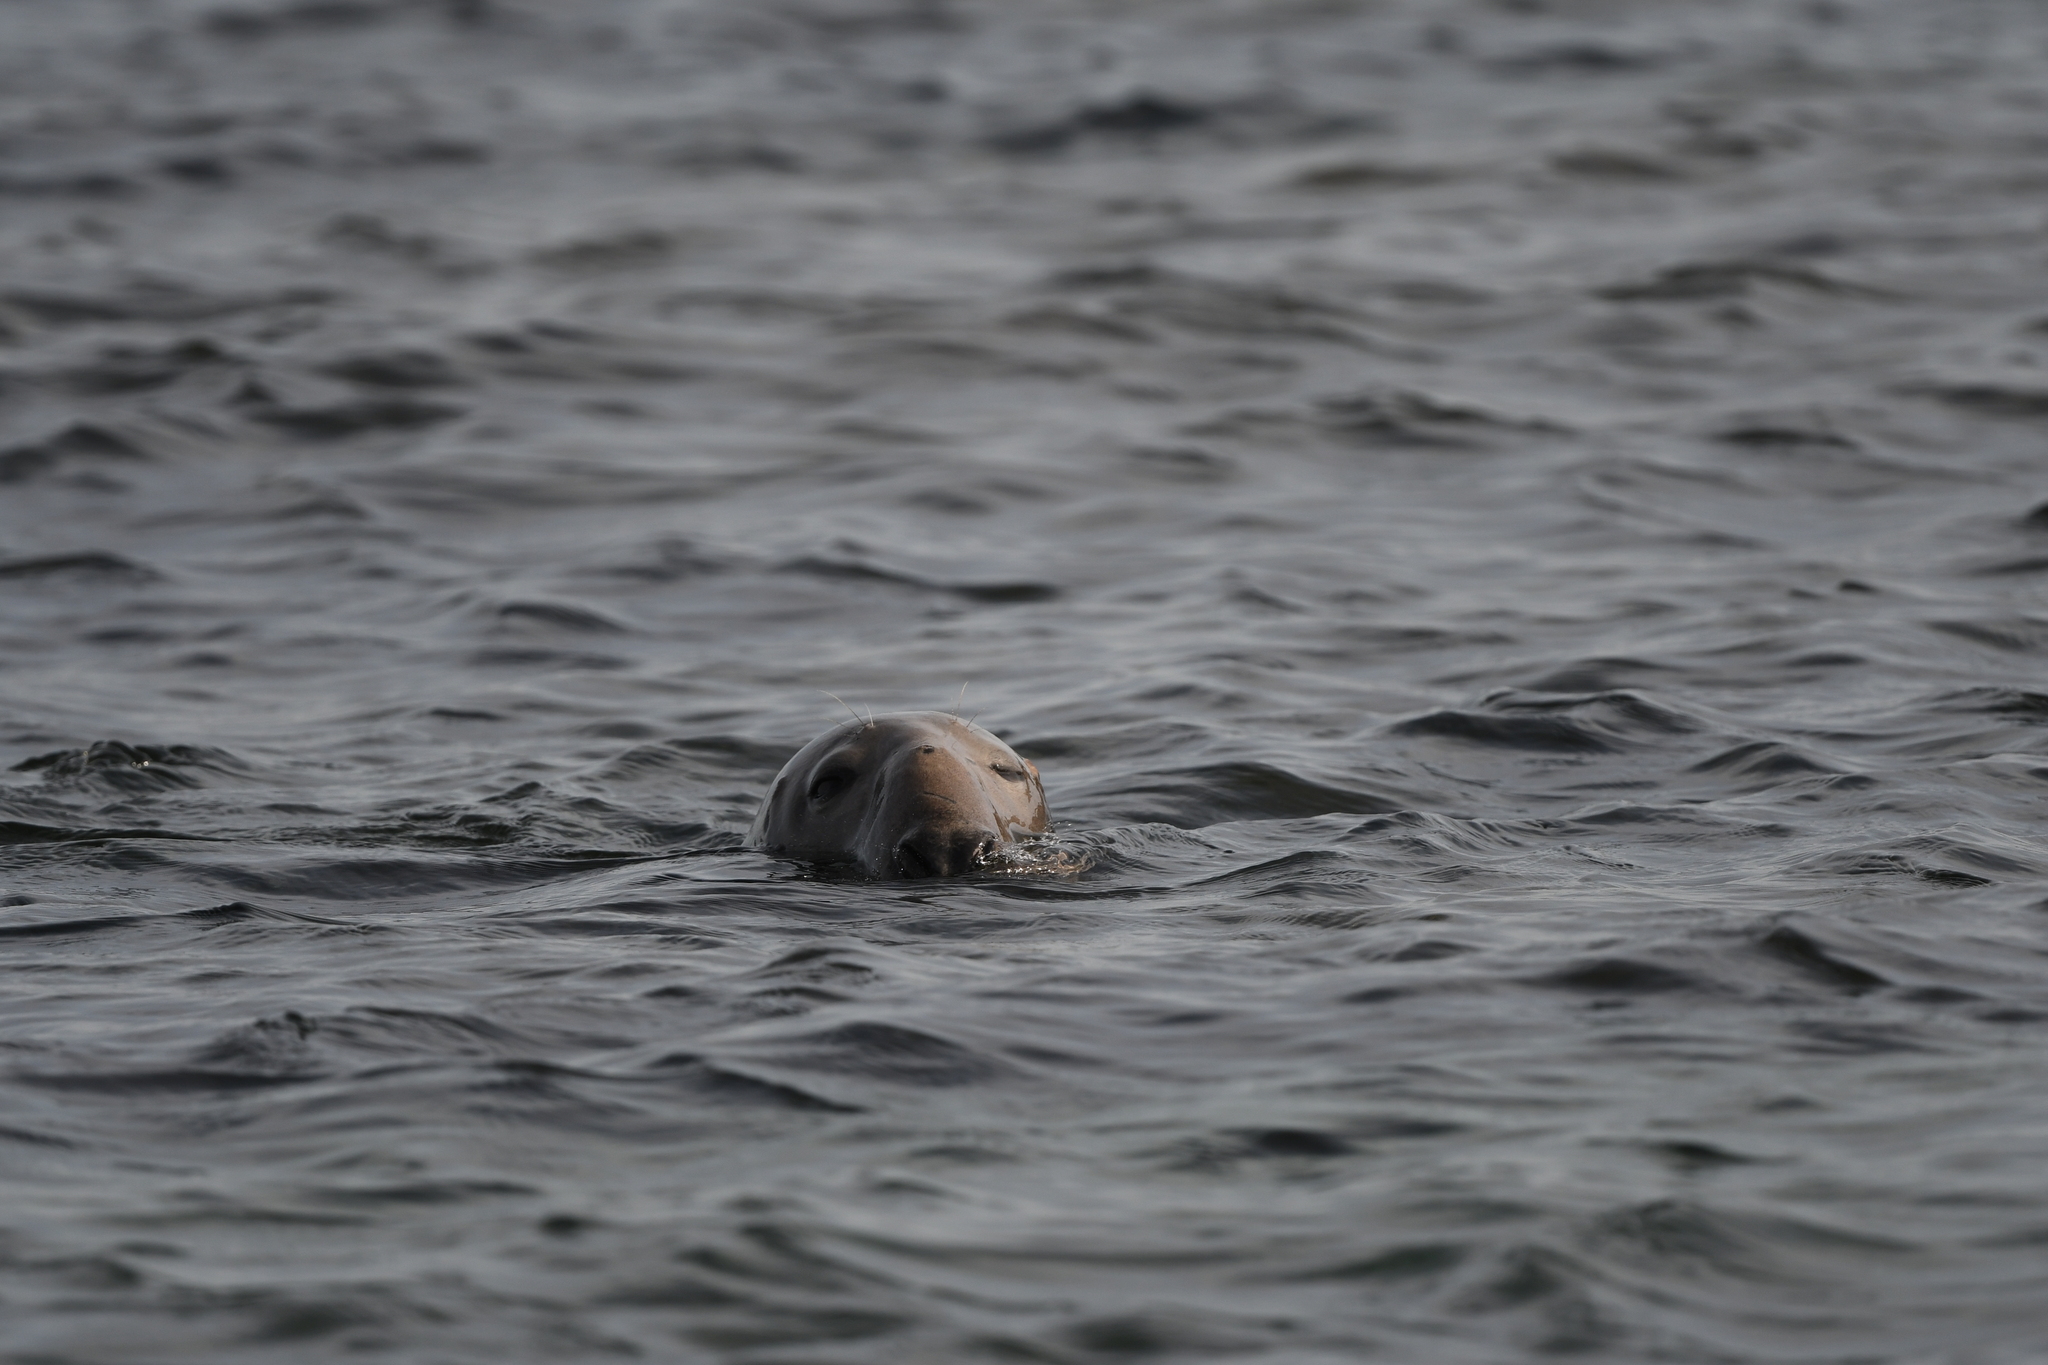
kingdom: Animalia
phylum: Chordata
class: Mammalia
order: Carnivora
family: Phocidae
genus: Halichoerus
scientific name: Halichoerus grypus
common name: Grey seal
